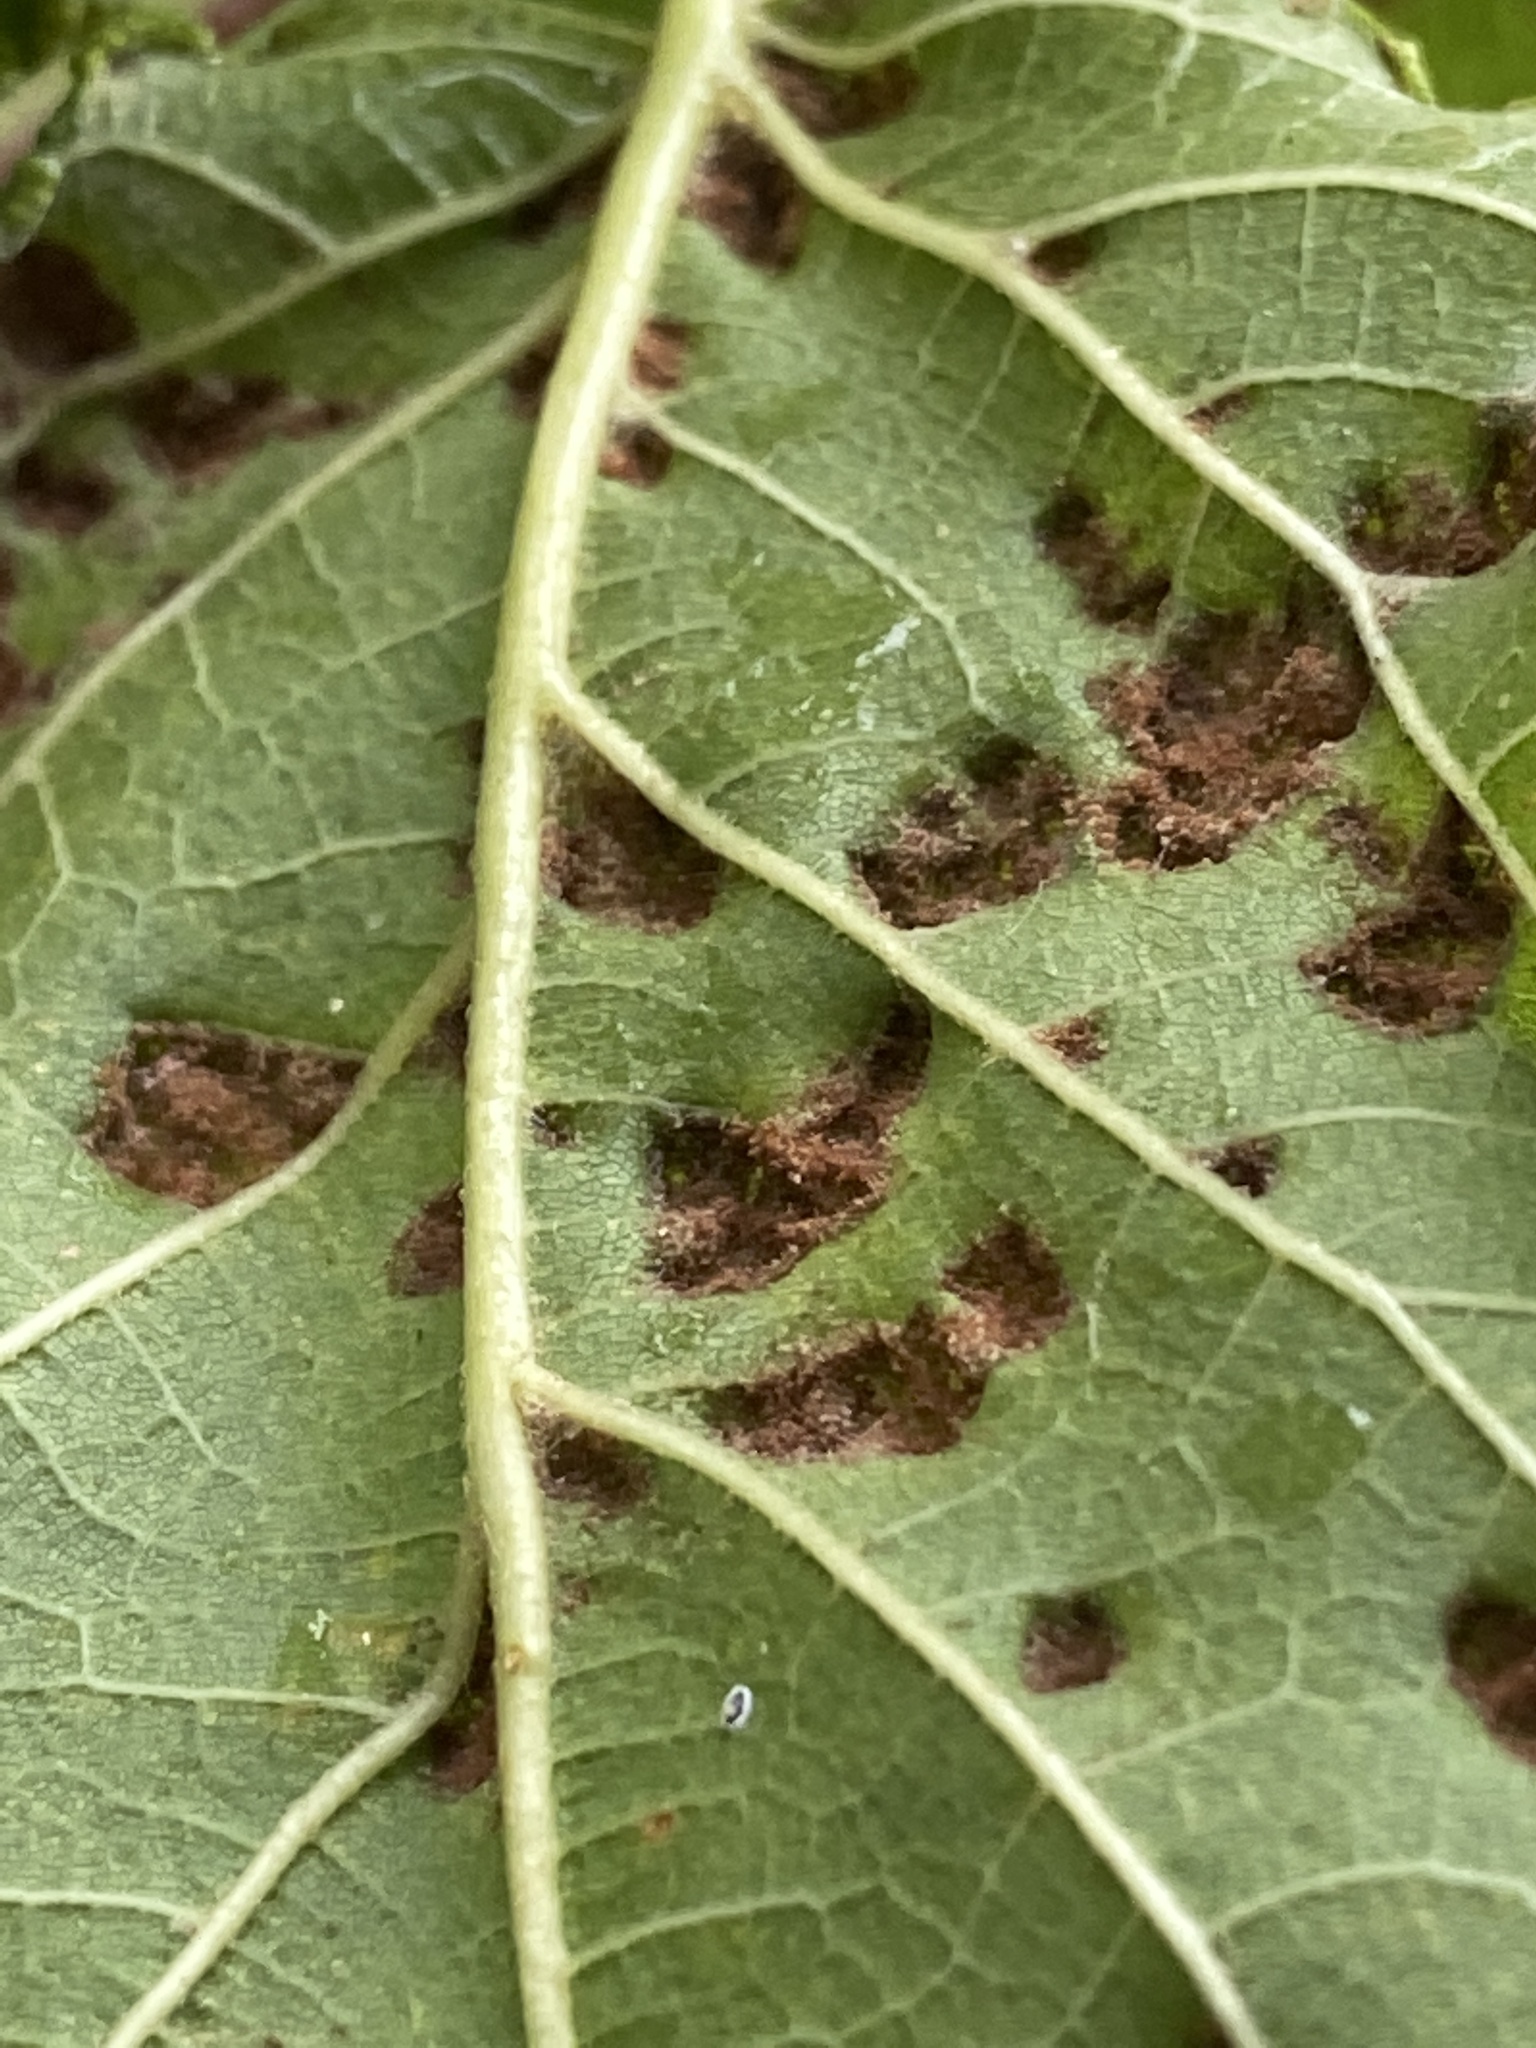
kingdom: Animalia
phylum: Arthropoda
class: Arachnida
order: Trombidiformes
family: Eriophyidae
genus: Aceria
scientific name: Aceria
